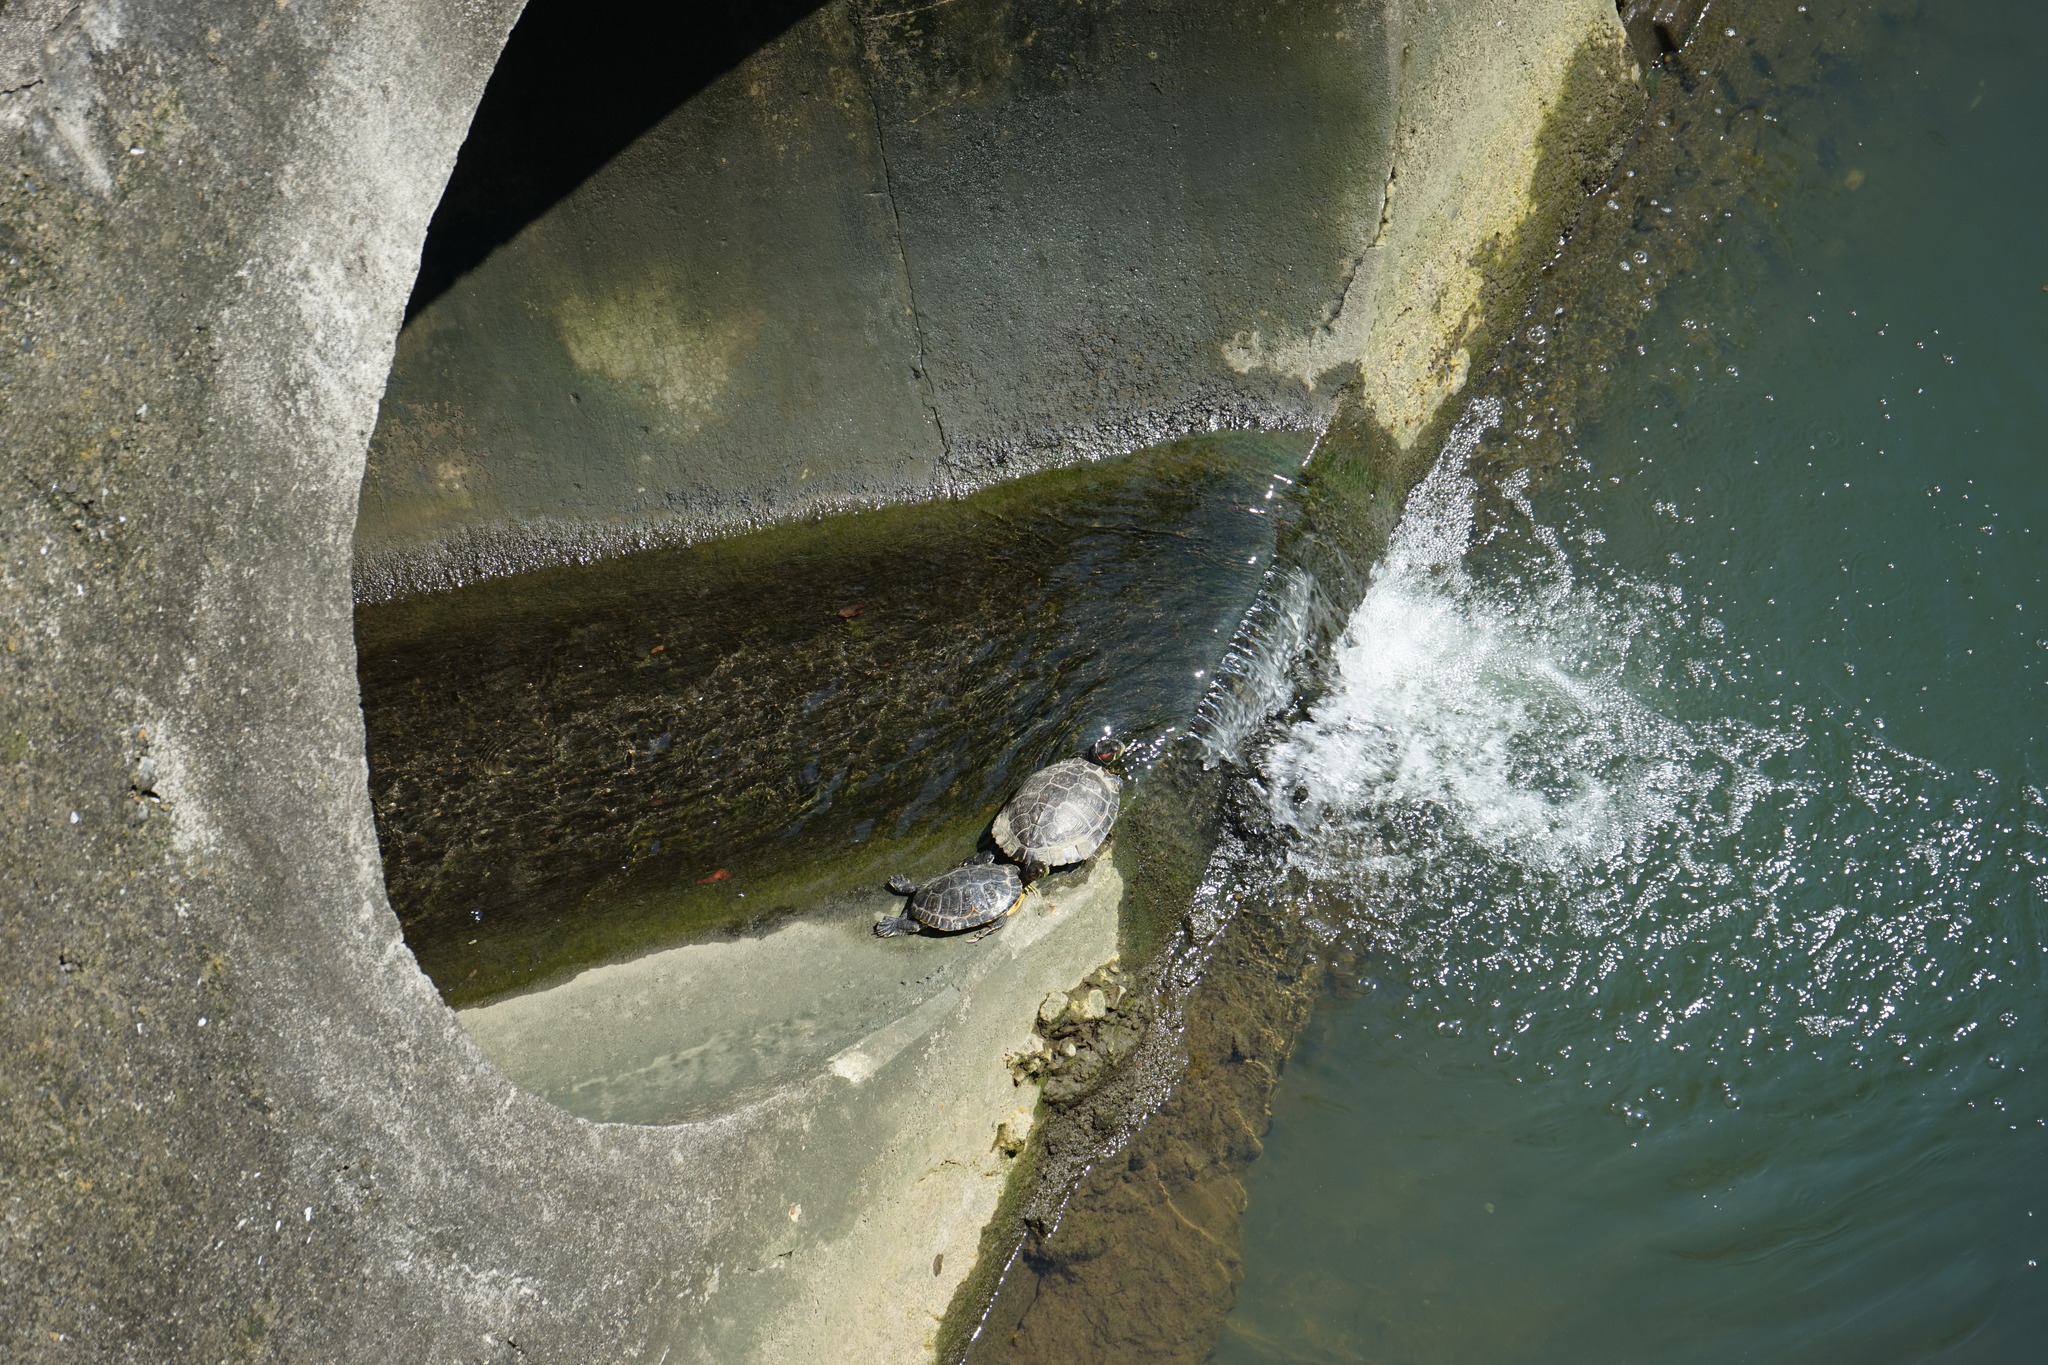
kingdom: Animalia
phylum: Chordata
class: Testudines
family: Emydidae
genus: Trachemys
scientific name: Trachemys scripta
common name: Slider
